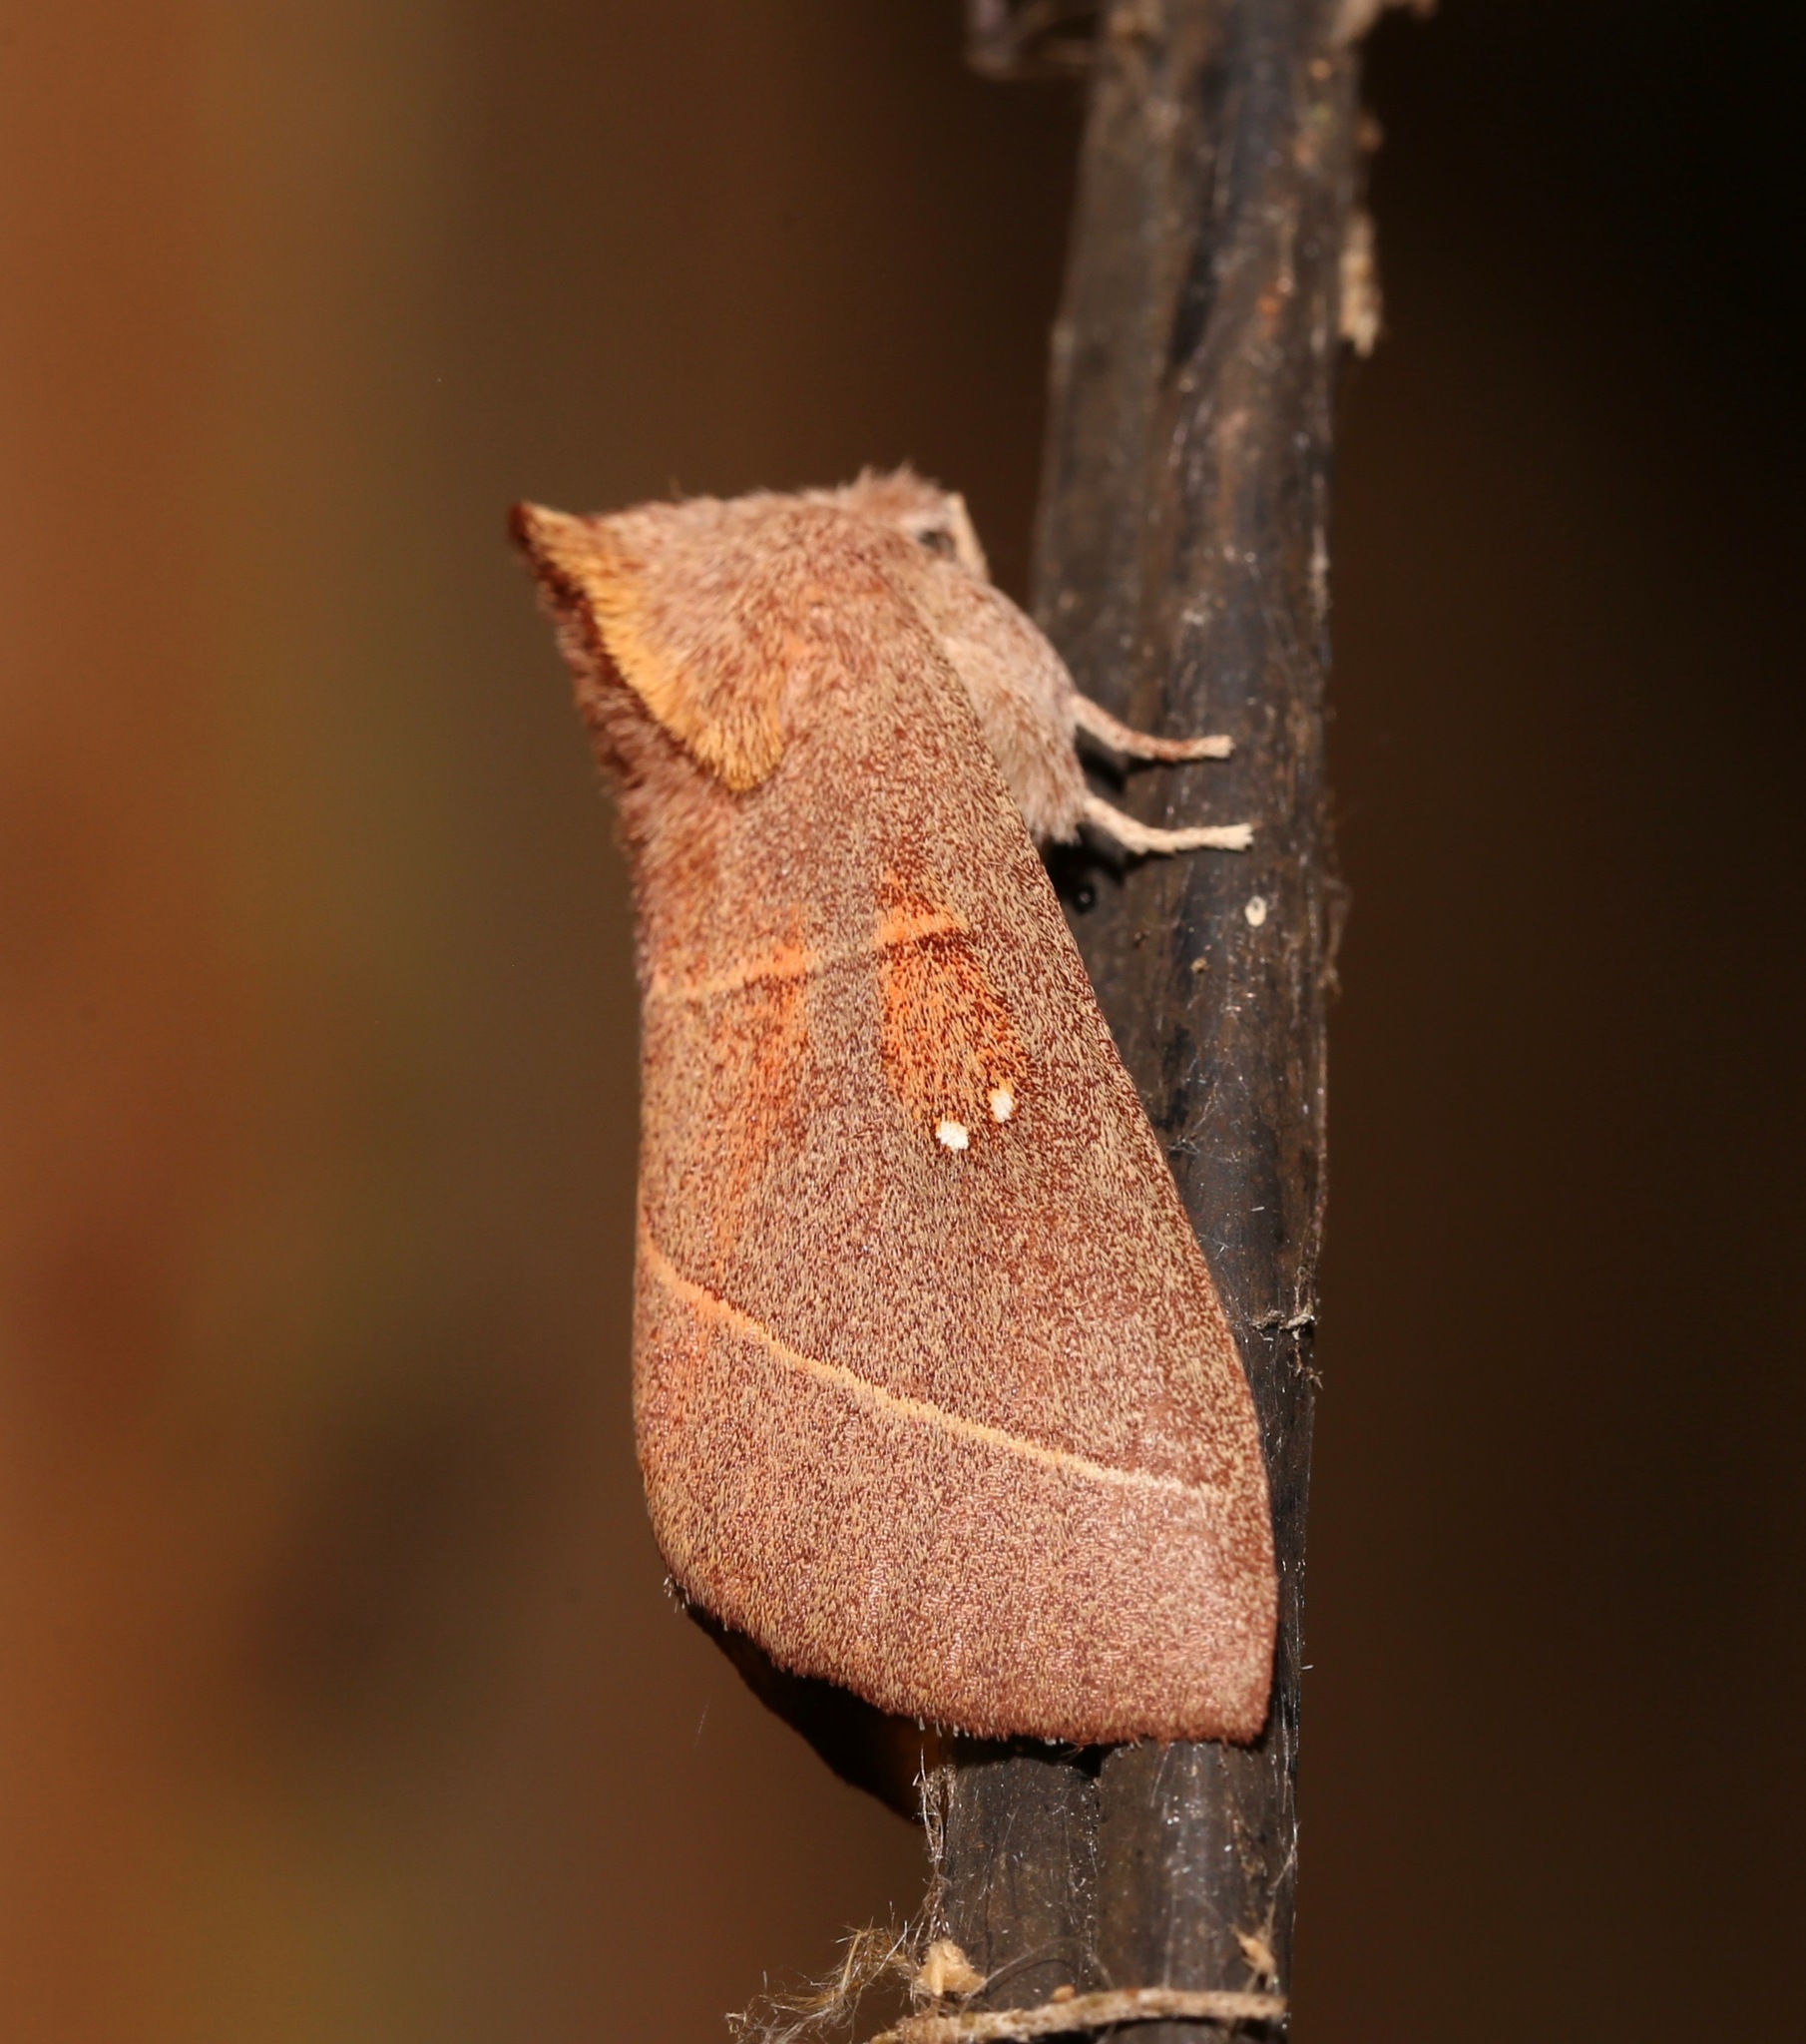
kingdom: Animalia
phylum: Arthropoda
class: Insecta
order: Lepidoptera
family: Notodontidae
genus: Nadata
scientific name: Nadata gibbosa
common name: White-dotted prominent
